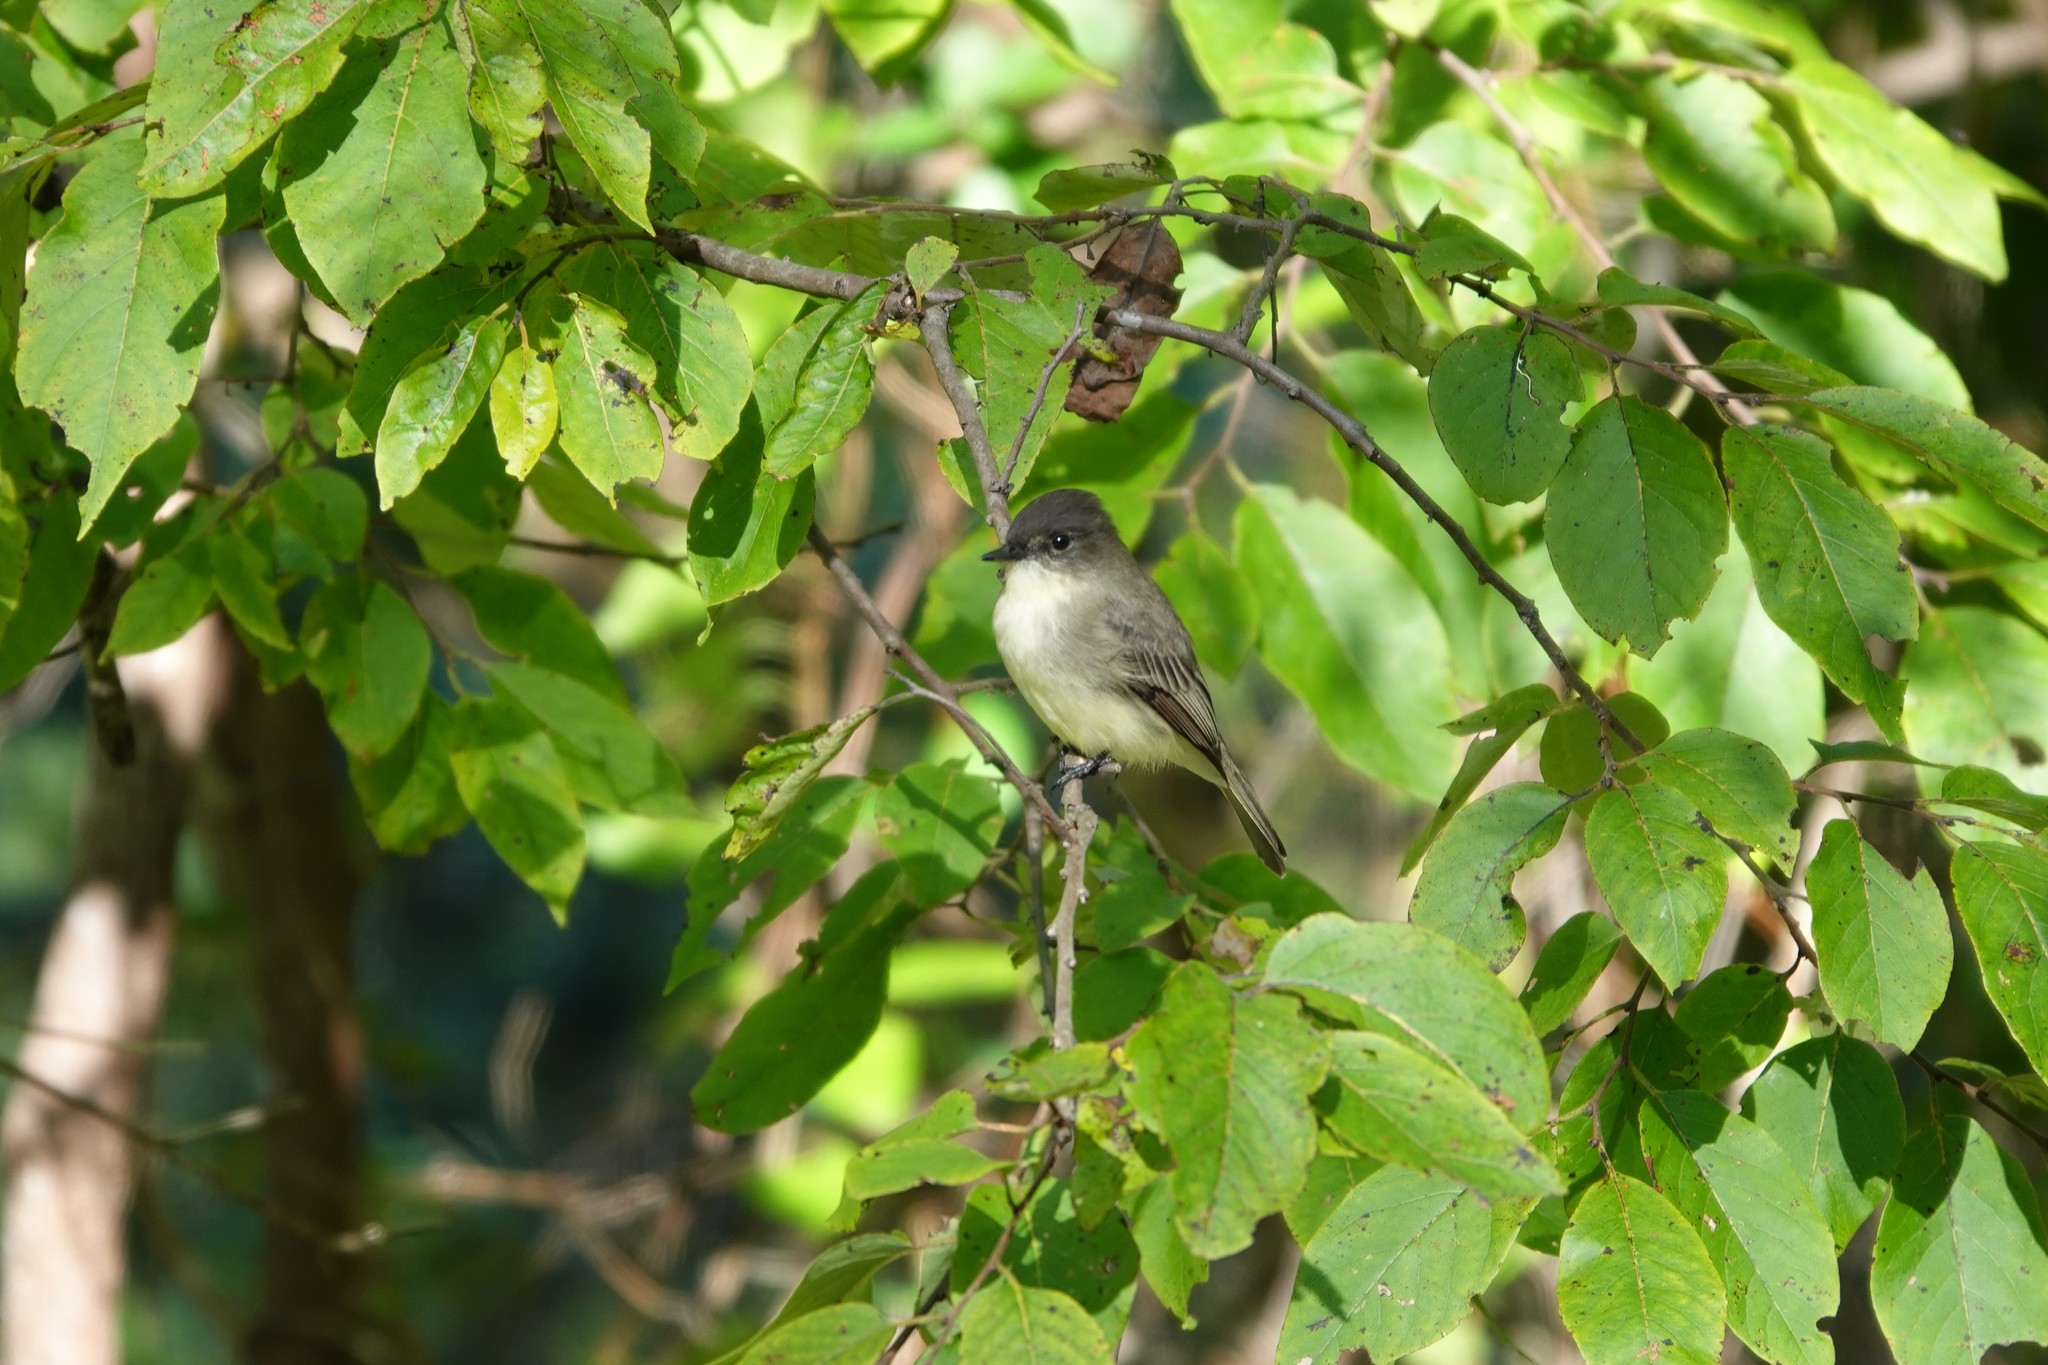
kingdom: Animalia
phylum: Chordata
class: Aves
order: Passeriformes
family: Tyrannidae
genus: Sayornis
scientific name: Sayornis phoebe
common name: Eastern phoebe
